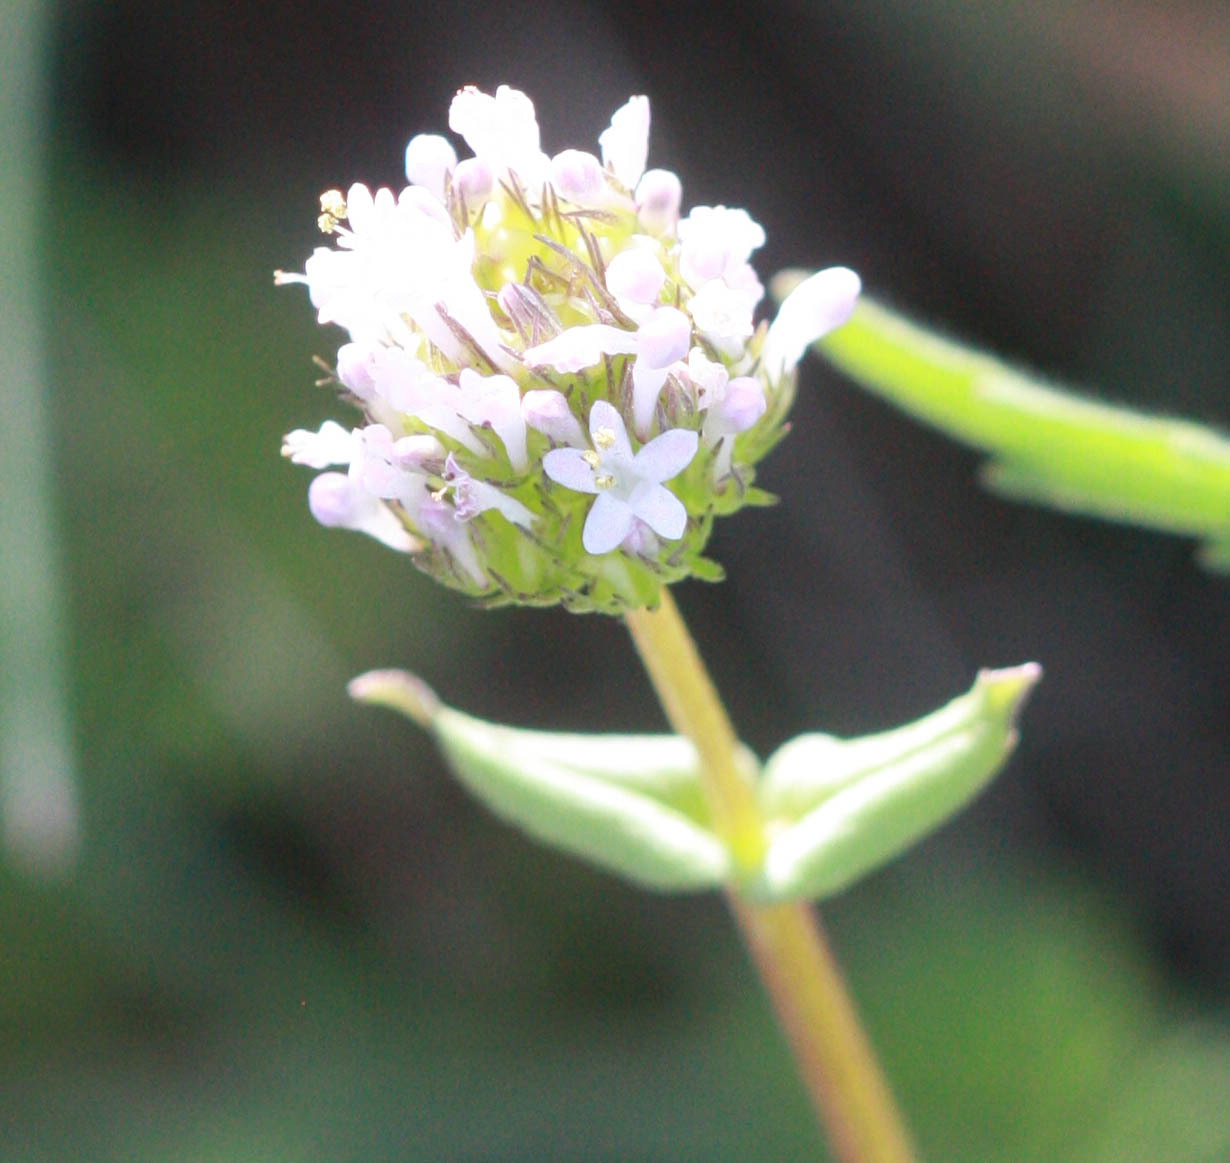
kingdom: Plantae
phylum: Tracheophyta
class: Magnoliopsida
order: Dipsacales
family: Caprifoliaceae
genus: Plectritis
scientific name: Plectritis macroptera
